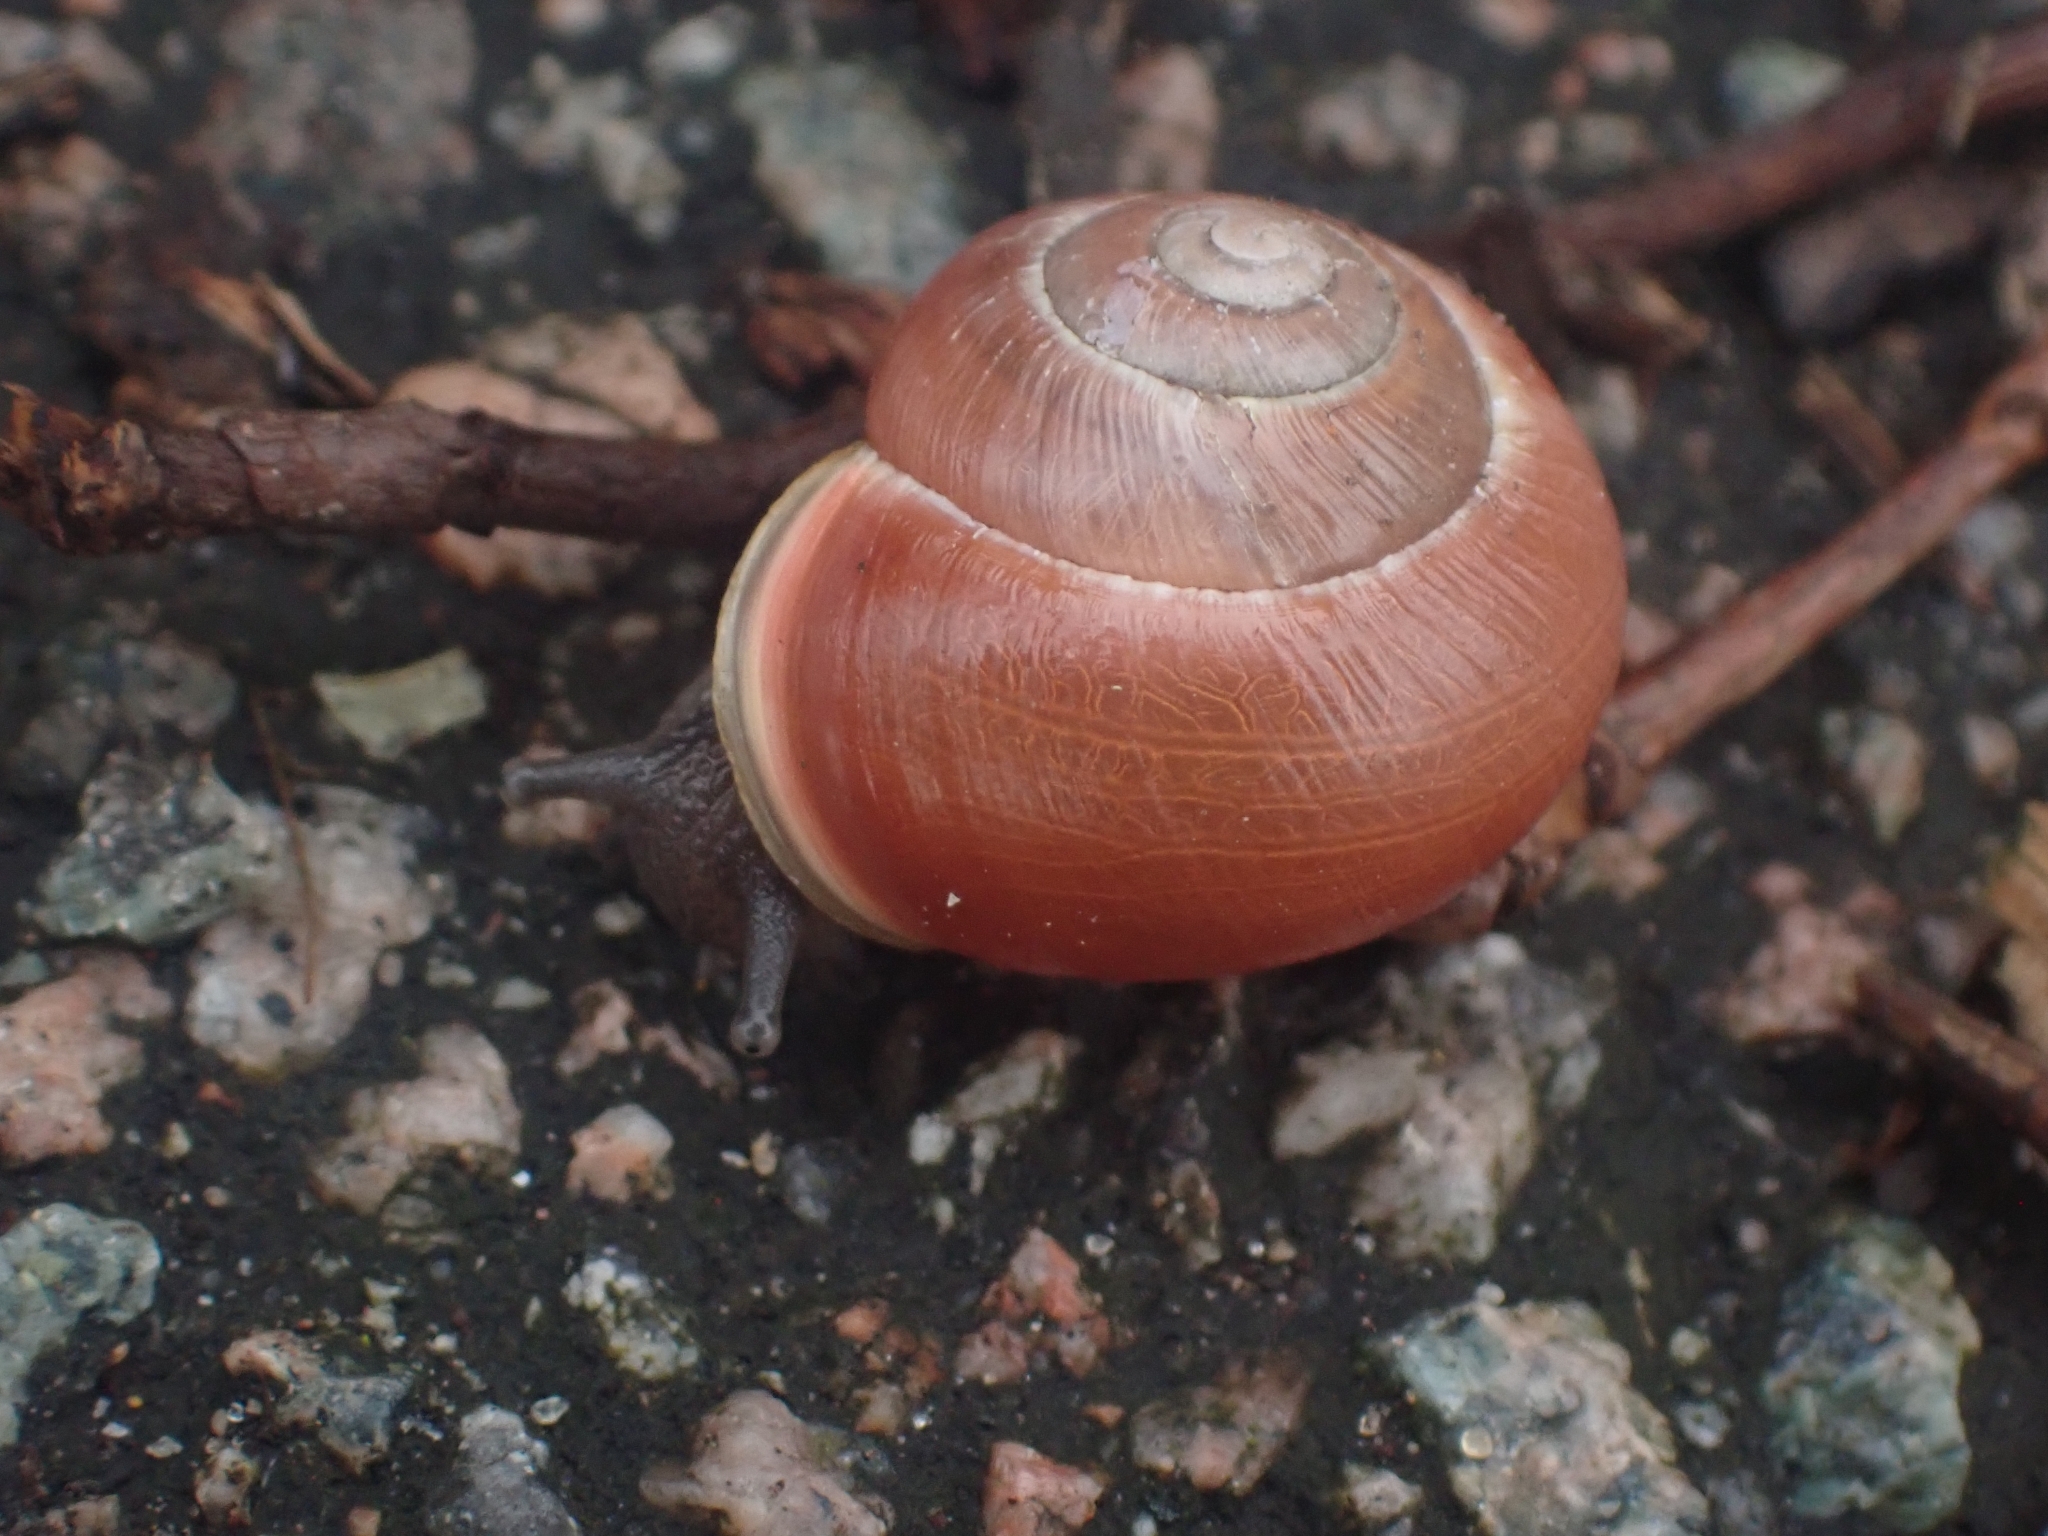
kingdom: Animalia
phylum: Mollusca
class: Gastropoda
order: Stylommatophora
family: Helicidae
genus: Cepaea
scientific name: Cepaea hortensis
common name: White-lip gardensnail
